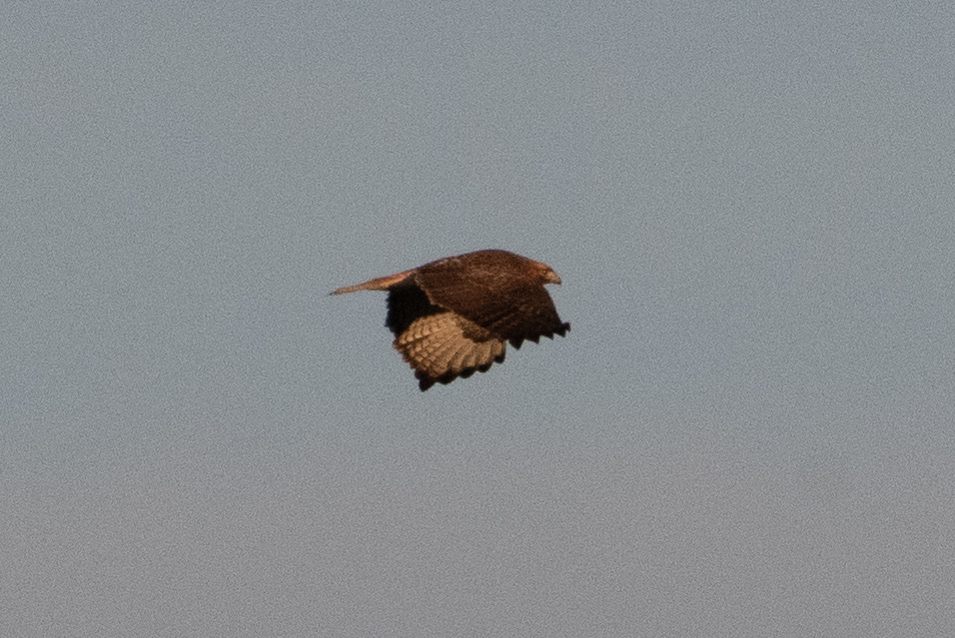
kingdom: Animalia
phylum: Chordata
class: Aves
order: Accipitriformes
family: Accipitridae
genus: Buteo
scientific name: Buteo jamaicensis
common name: Red-tailed hawk
